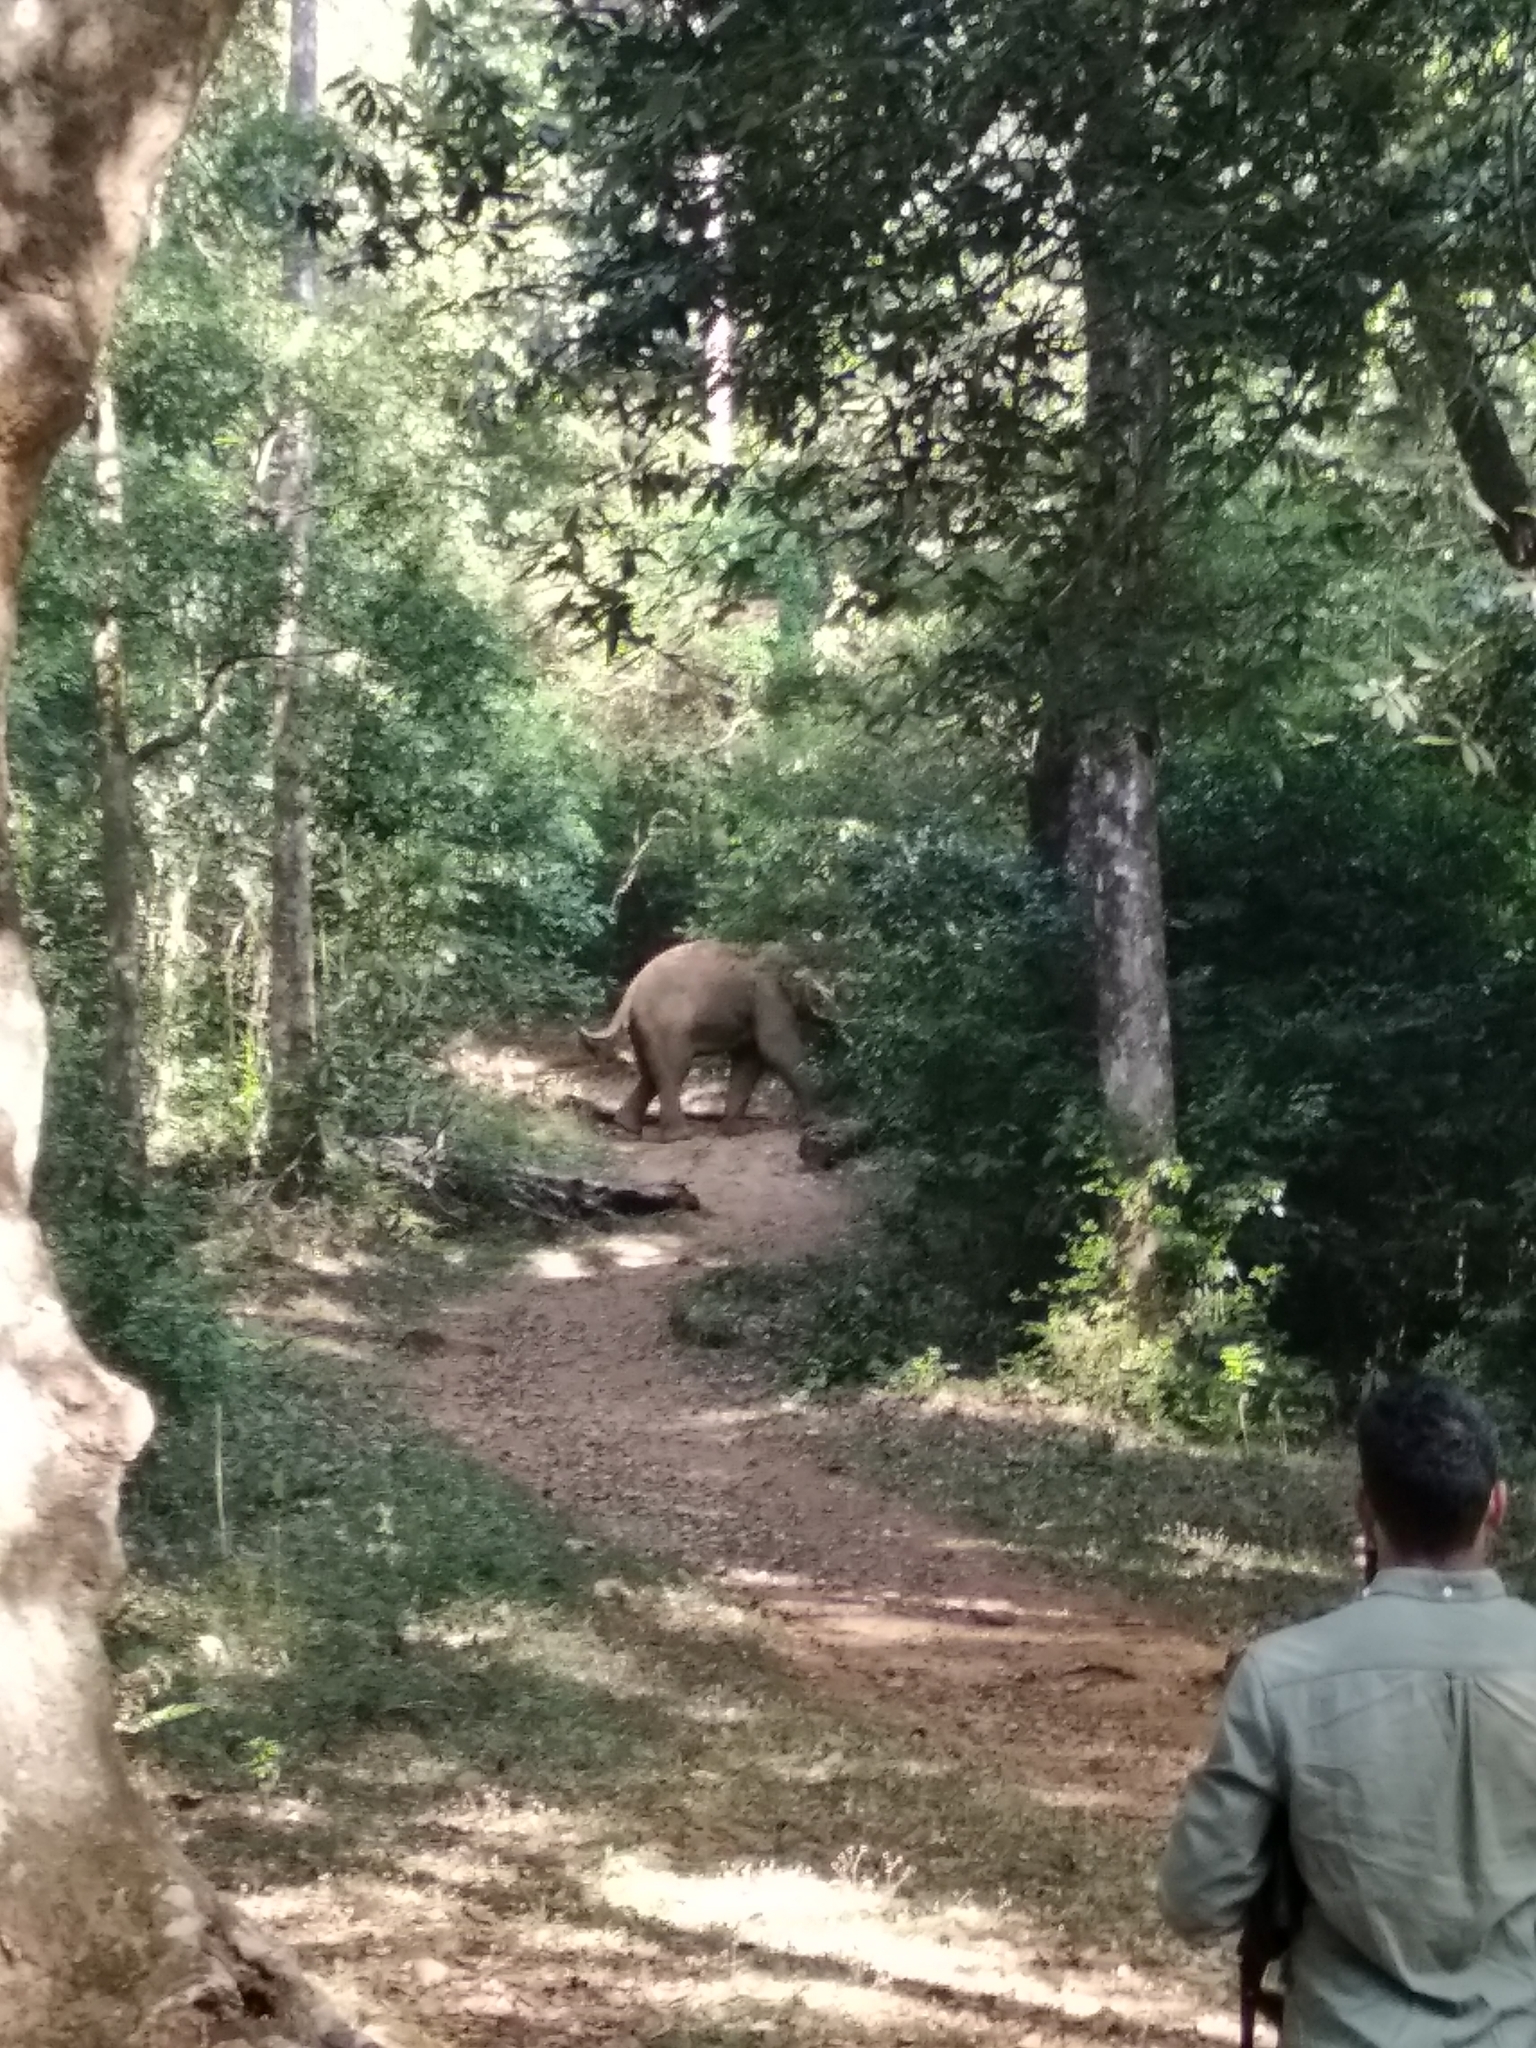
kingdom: Animalia
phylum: Chordata
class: Mammalia
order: Proboscidea
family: Elephantidae
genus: Elephas
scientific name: Elephas maximus
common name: Asian elephant
